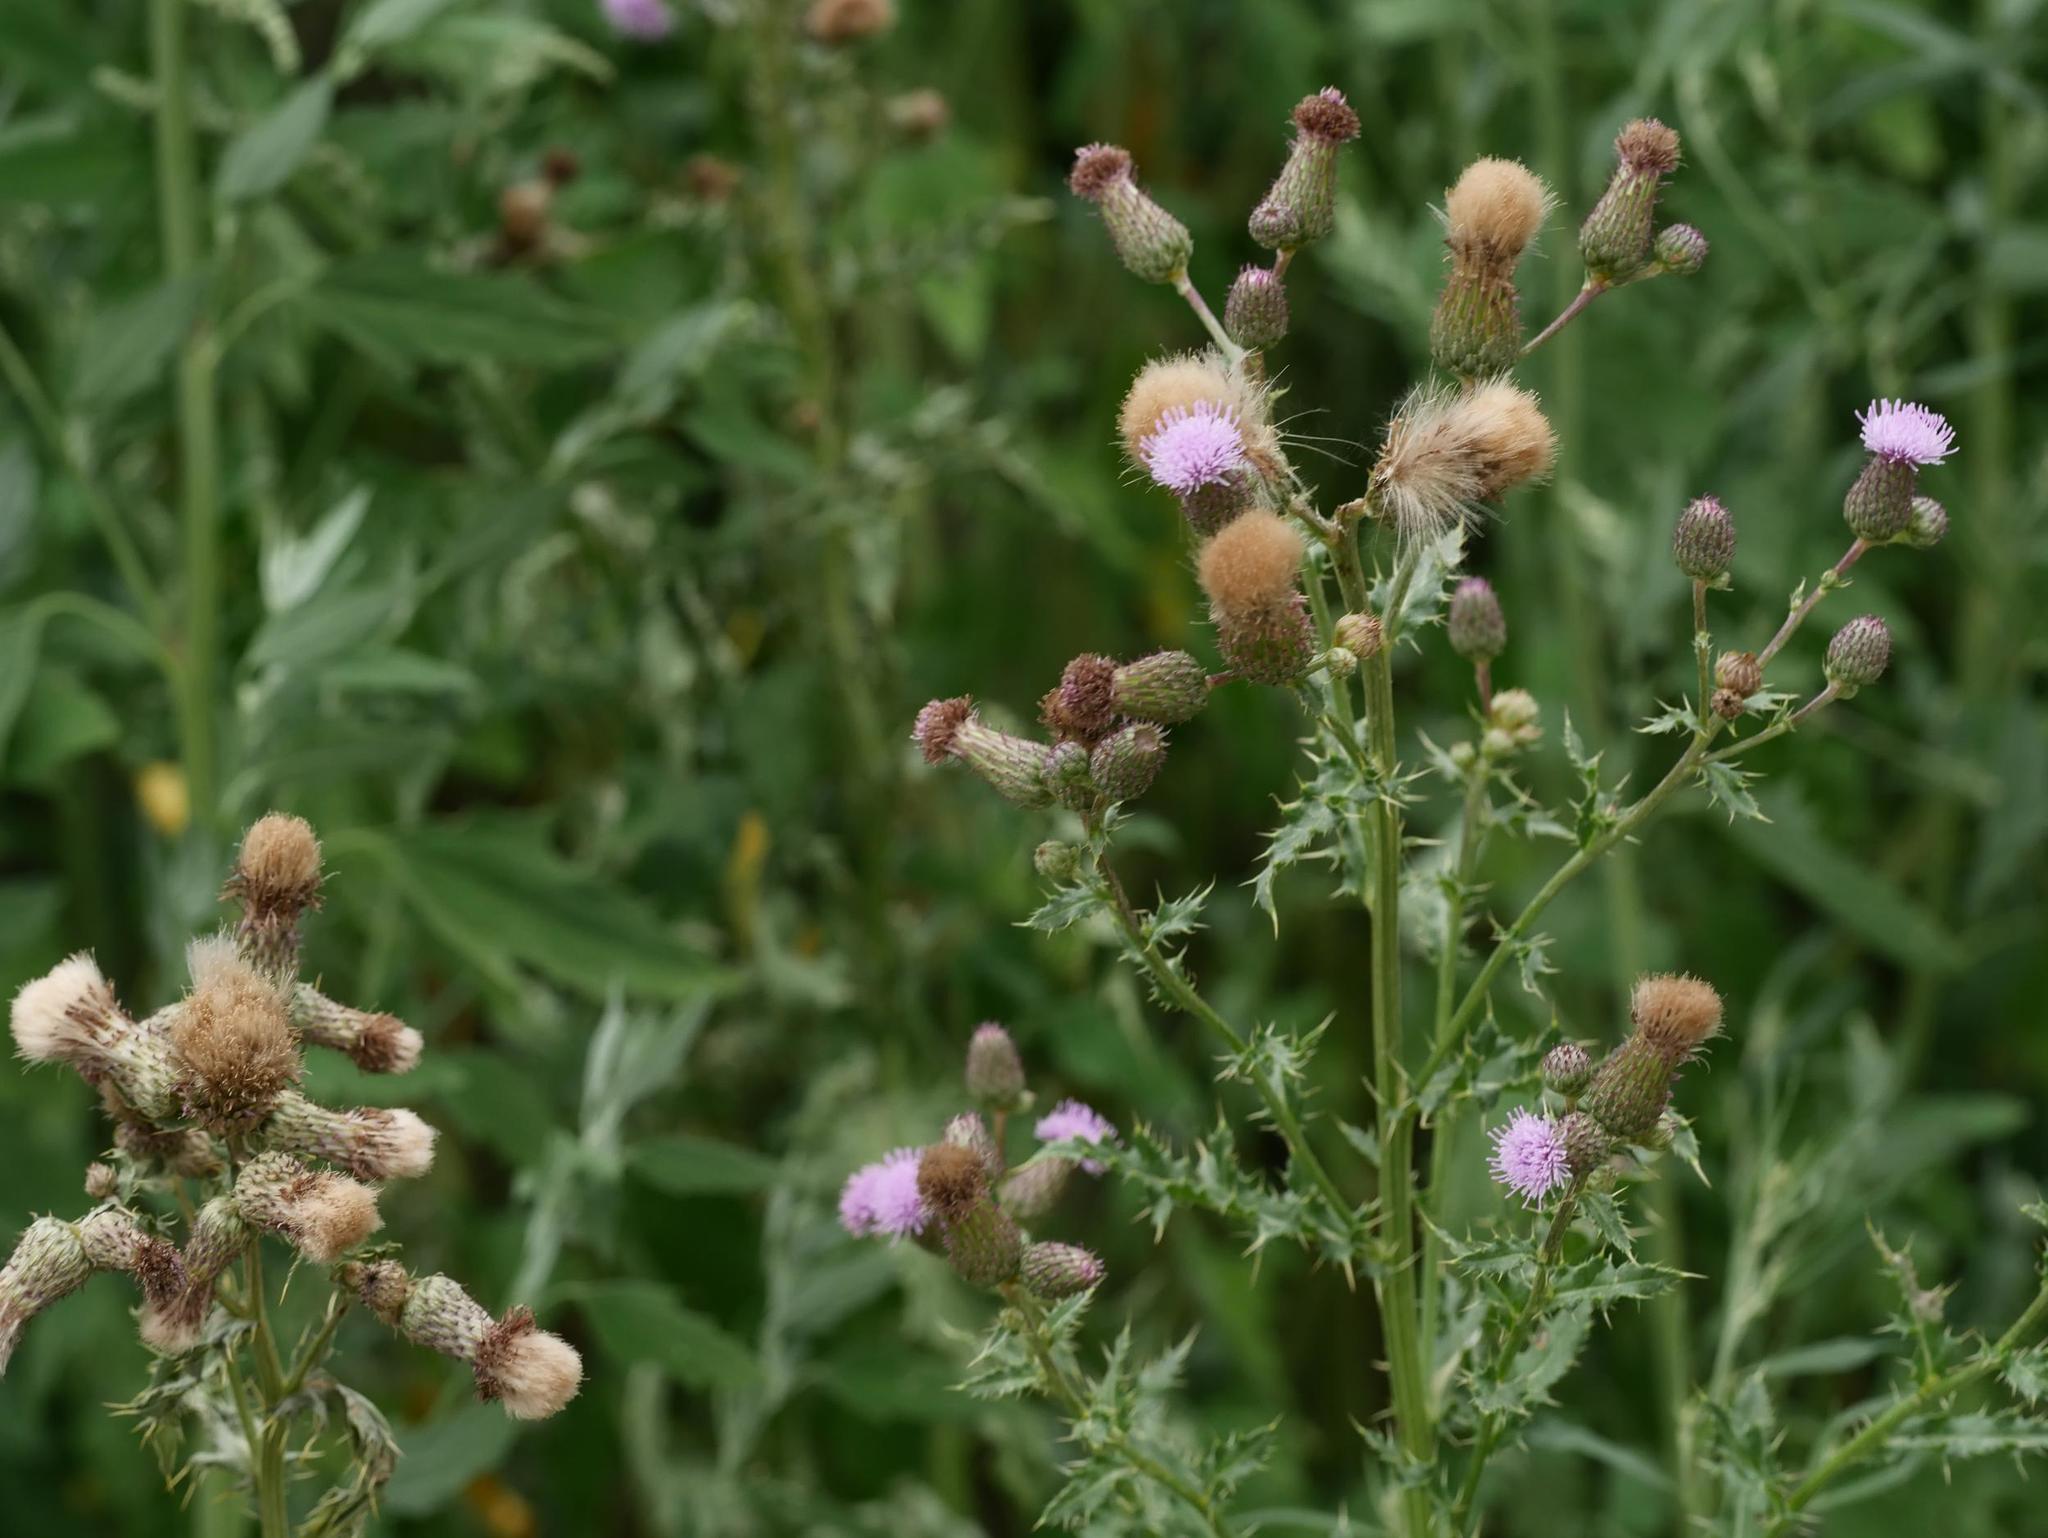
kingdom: Plantae
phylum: Tracheophyta
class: Magnoliopsida
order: Asterales
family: Asteraceae
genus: Cirsium
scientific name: Cirsium arvense
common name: Creeping thistle
